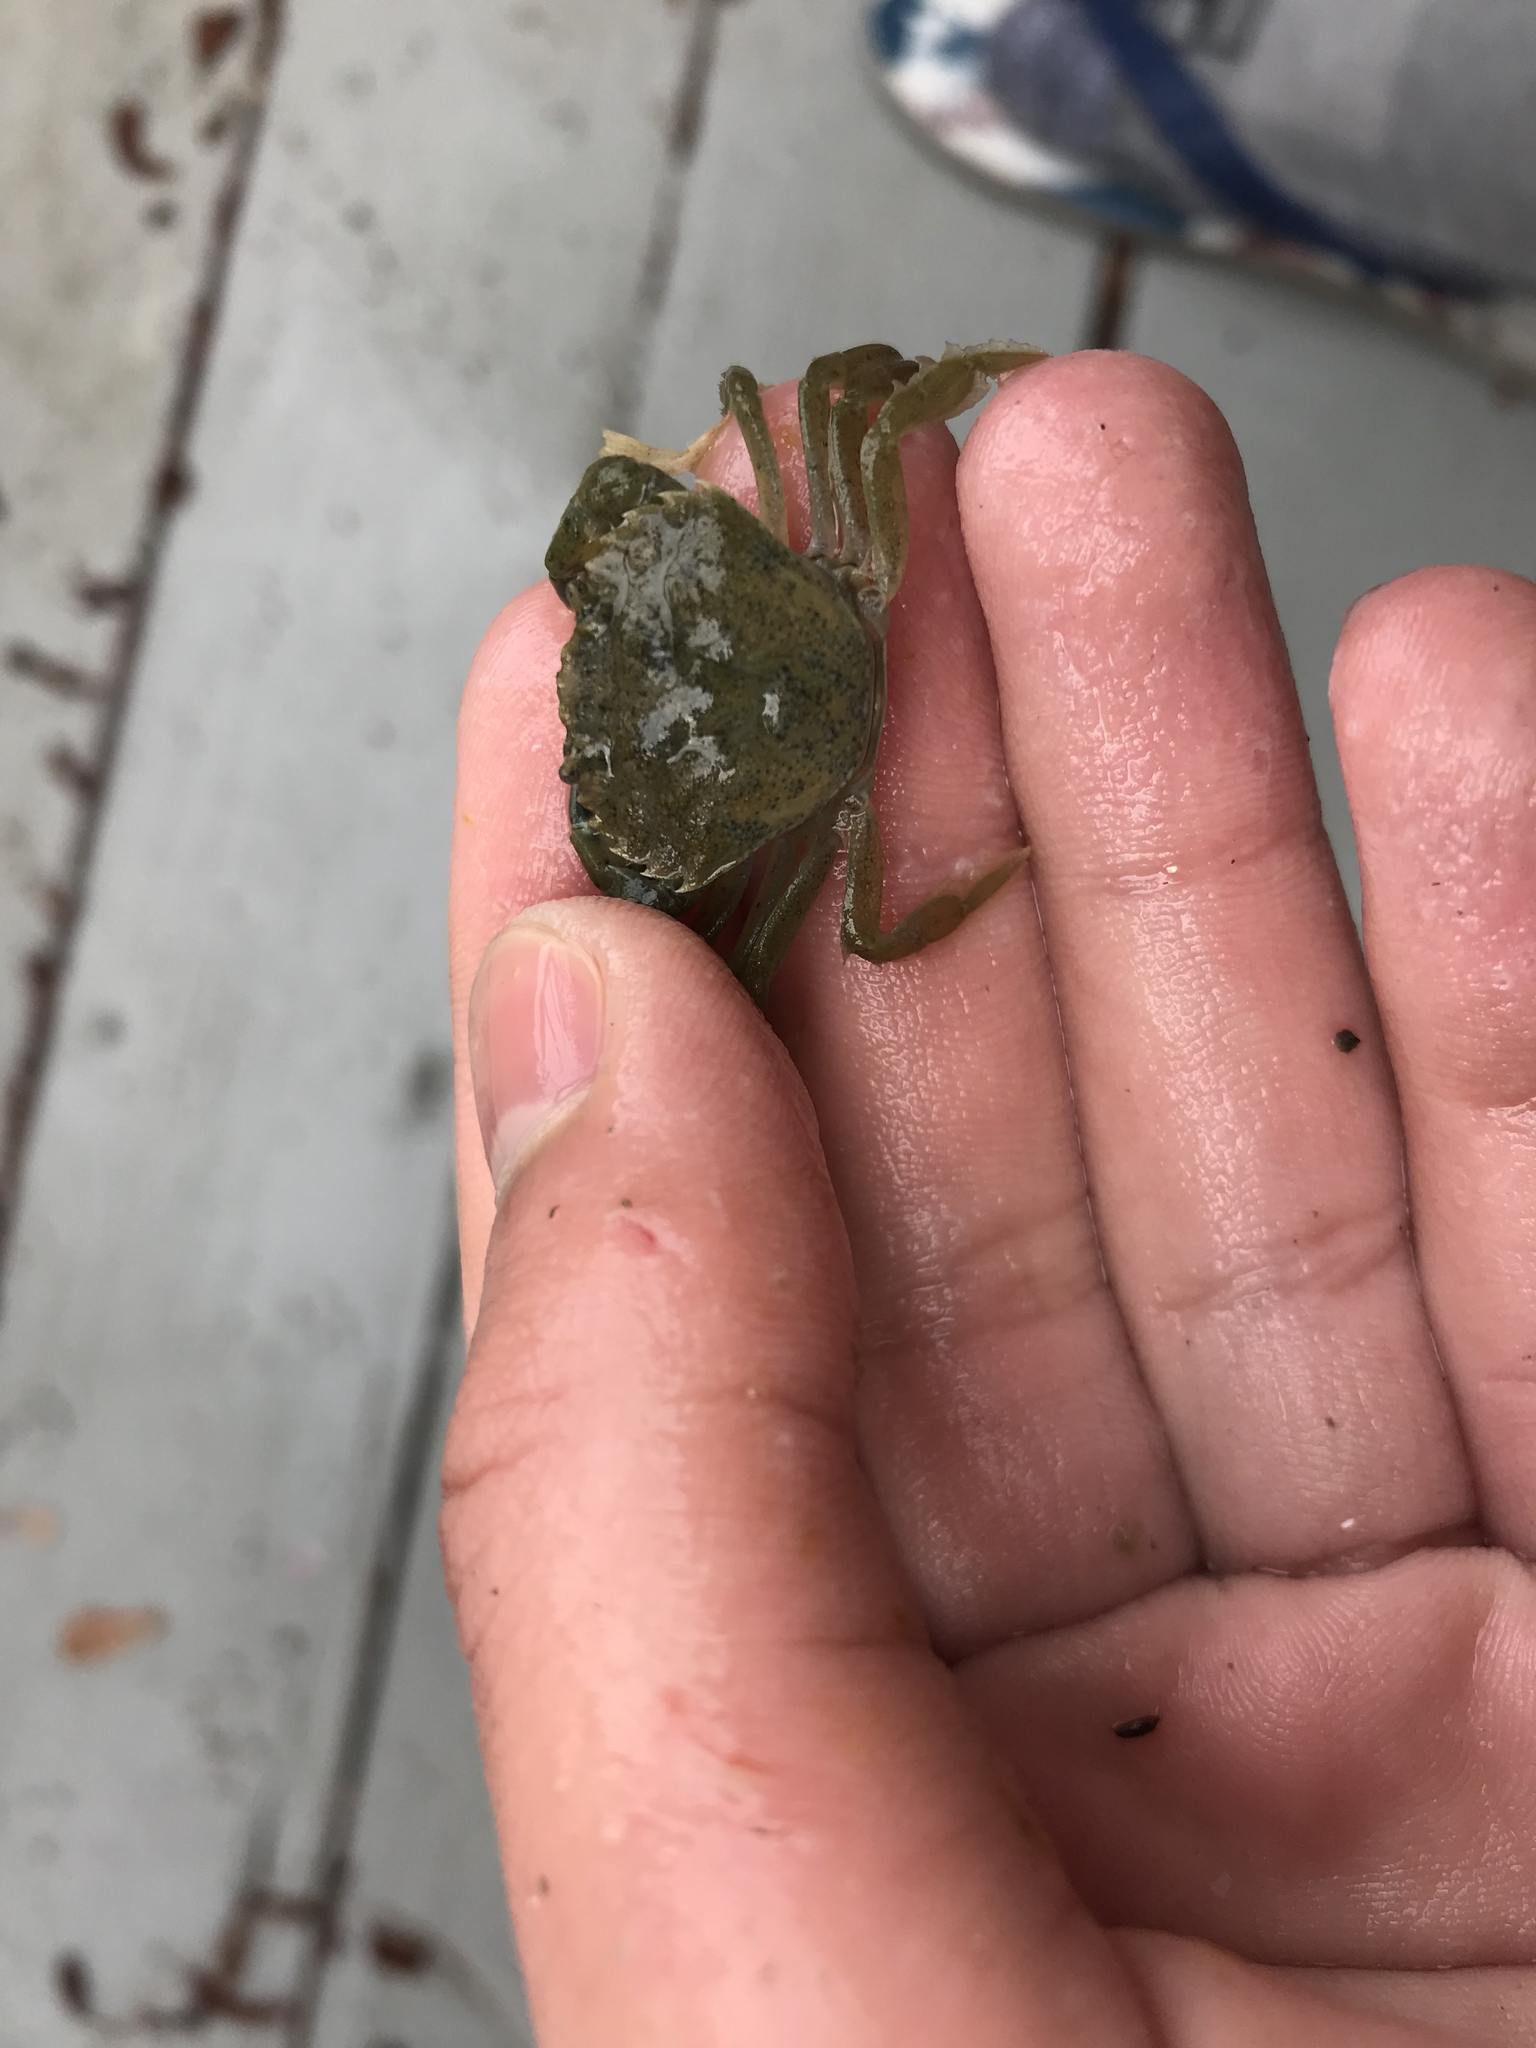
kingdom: Animalia
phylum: Arthropoda
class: Malacostraca
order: Decapoda
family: Carcinidae
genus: Carcinus
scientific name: Carcinus maenas
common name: European green crab
